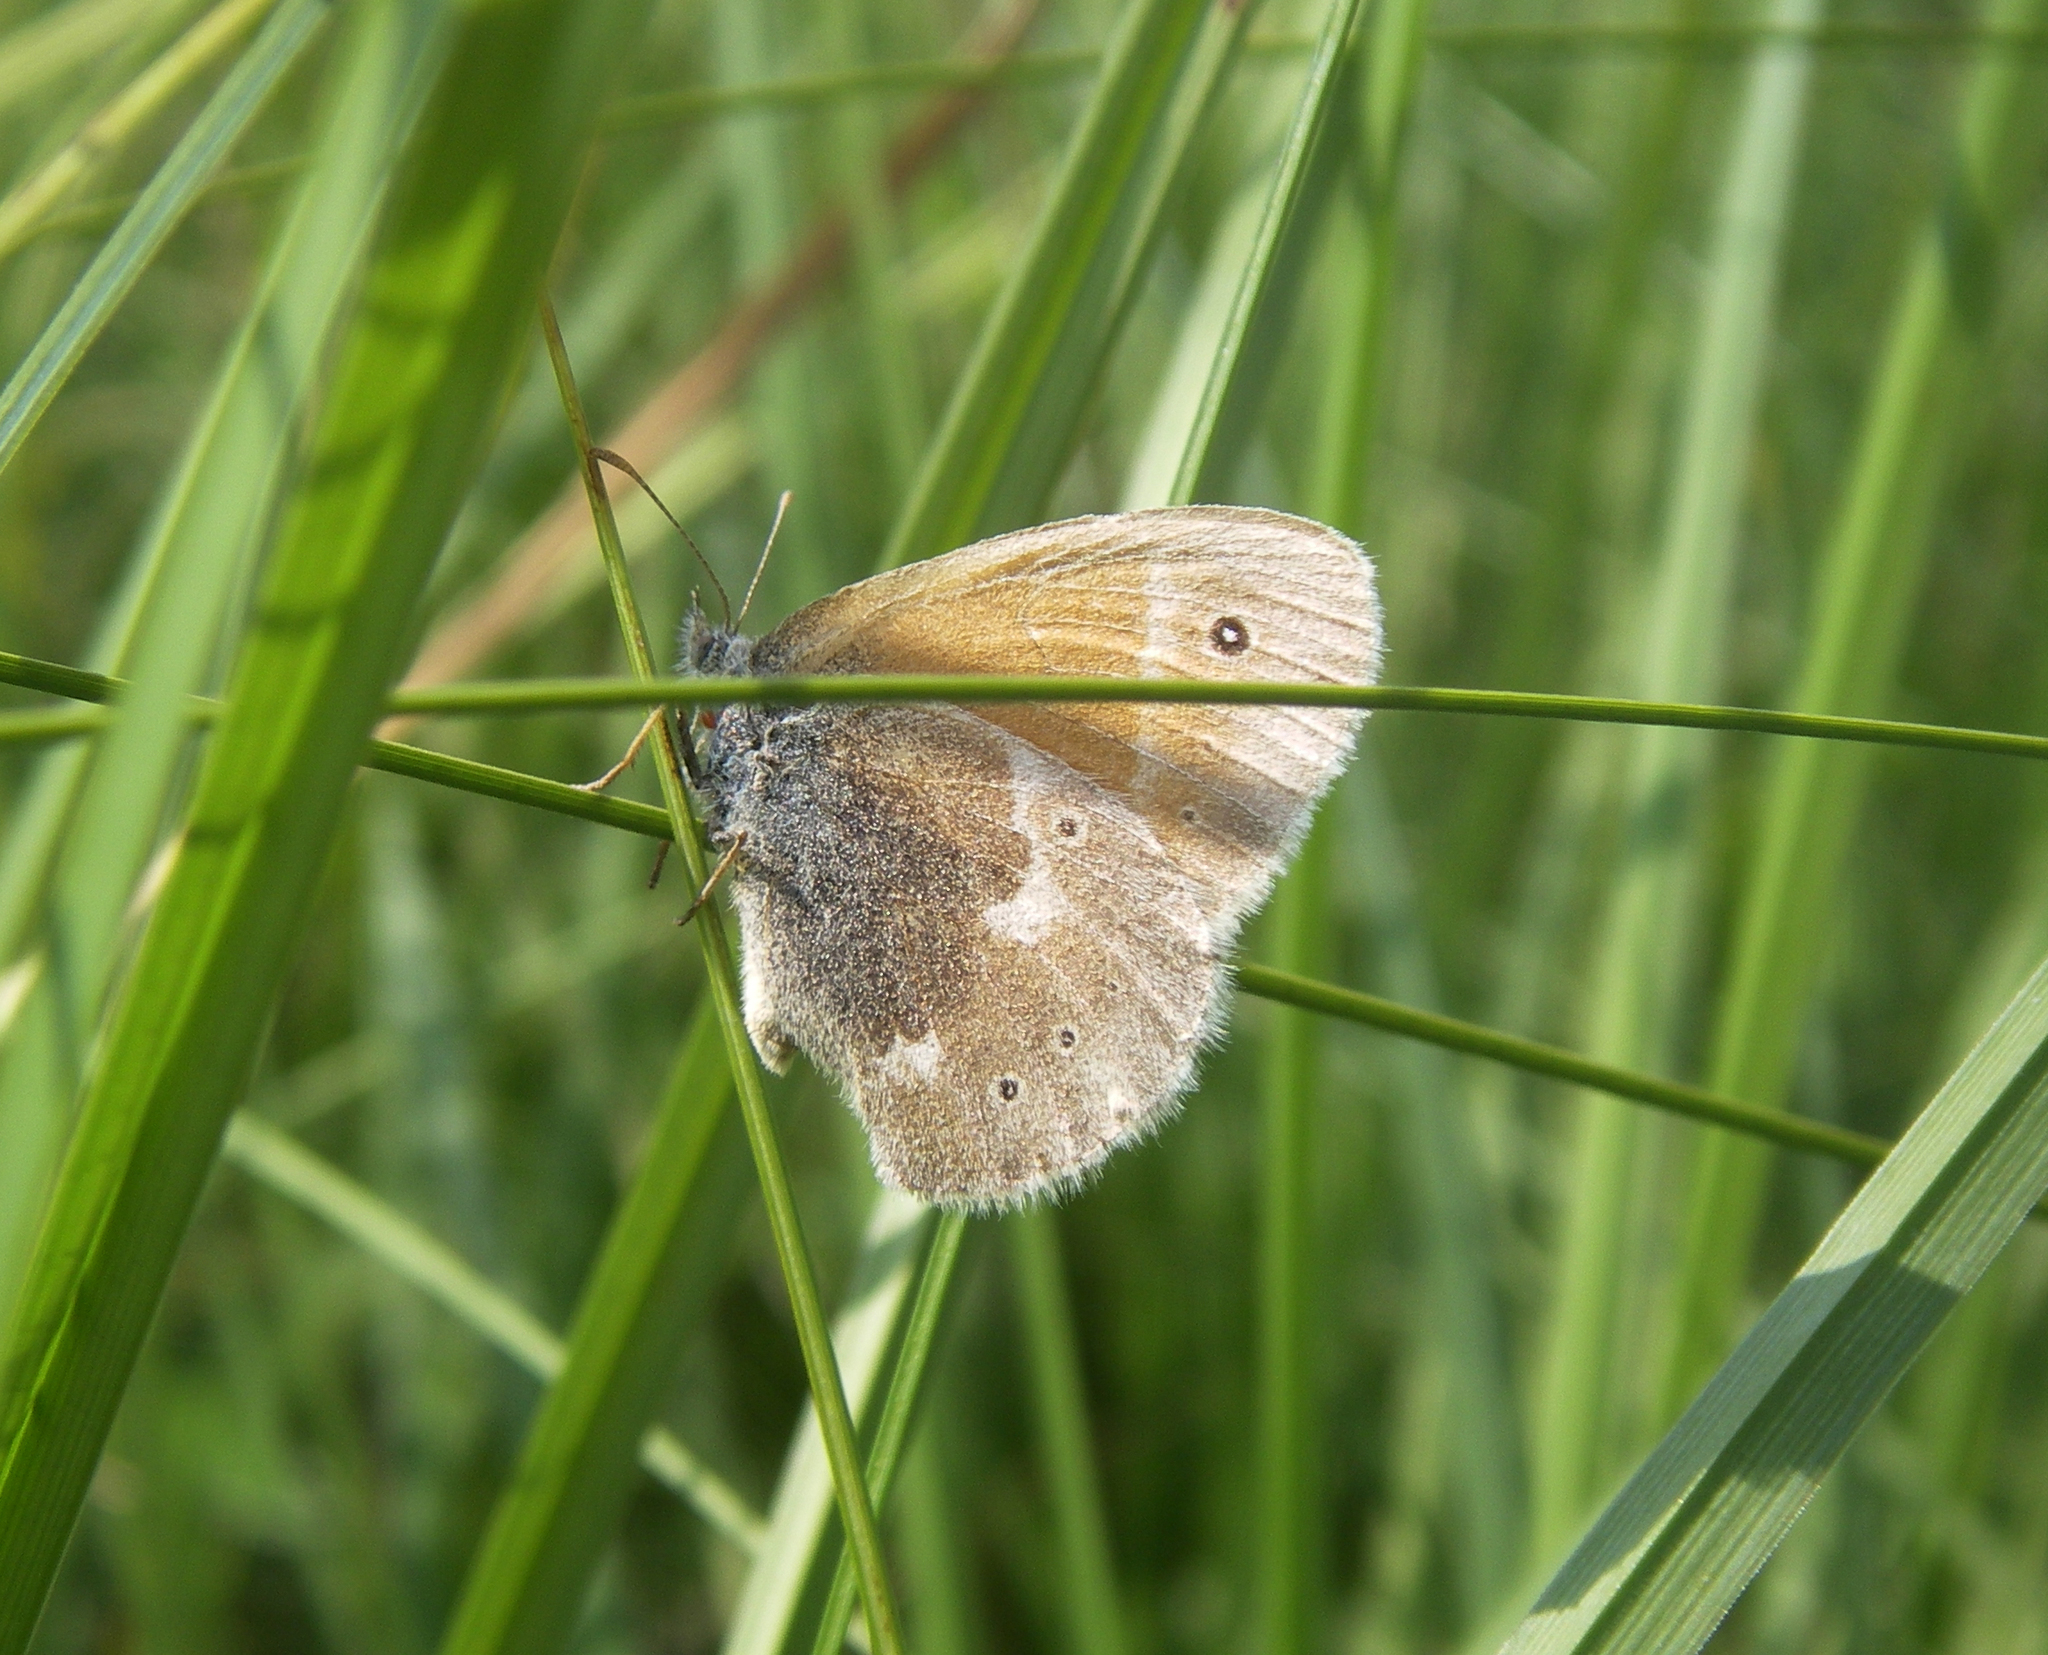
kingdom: Animalia
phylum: Arthropoda
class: Insecta
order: Lepidoptera
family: Nymphalidae
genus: Coenonympha
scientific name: Coenonympha tullia
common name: Large heath
